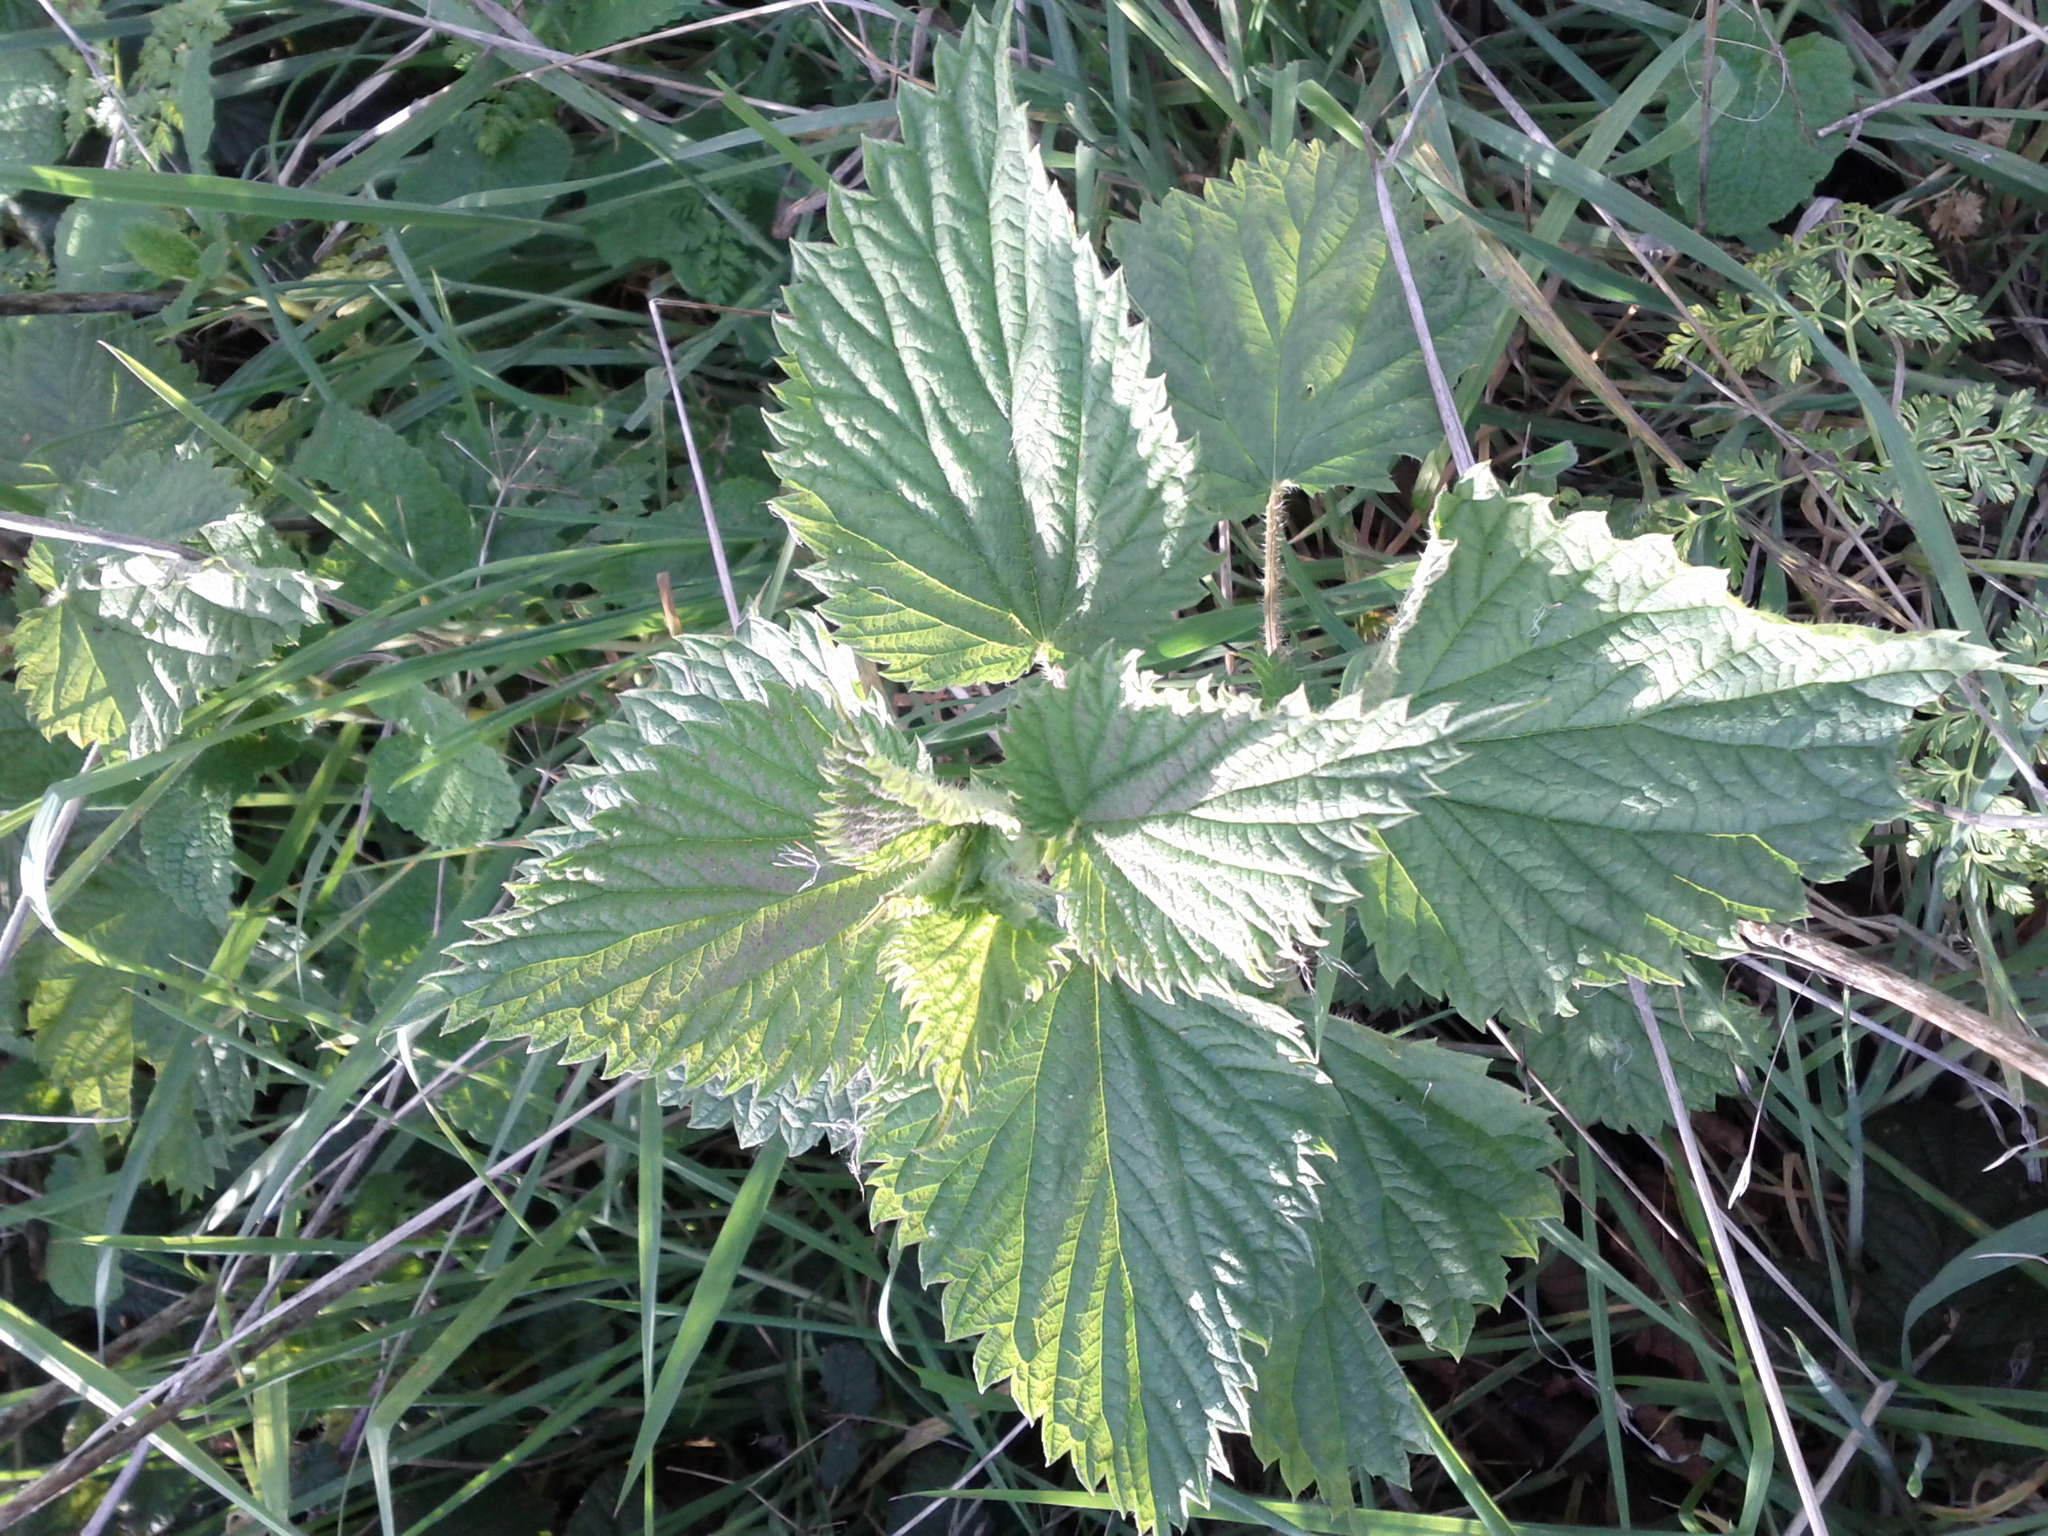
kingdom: Plantae
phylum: Tracheophyta
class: Magnoliopsida
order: Rosales
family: Urticaceae
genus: Urtica
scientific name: Urtica dioica
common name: Common nettle
